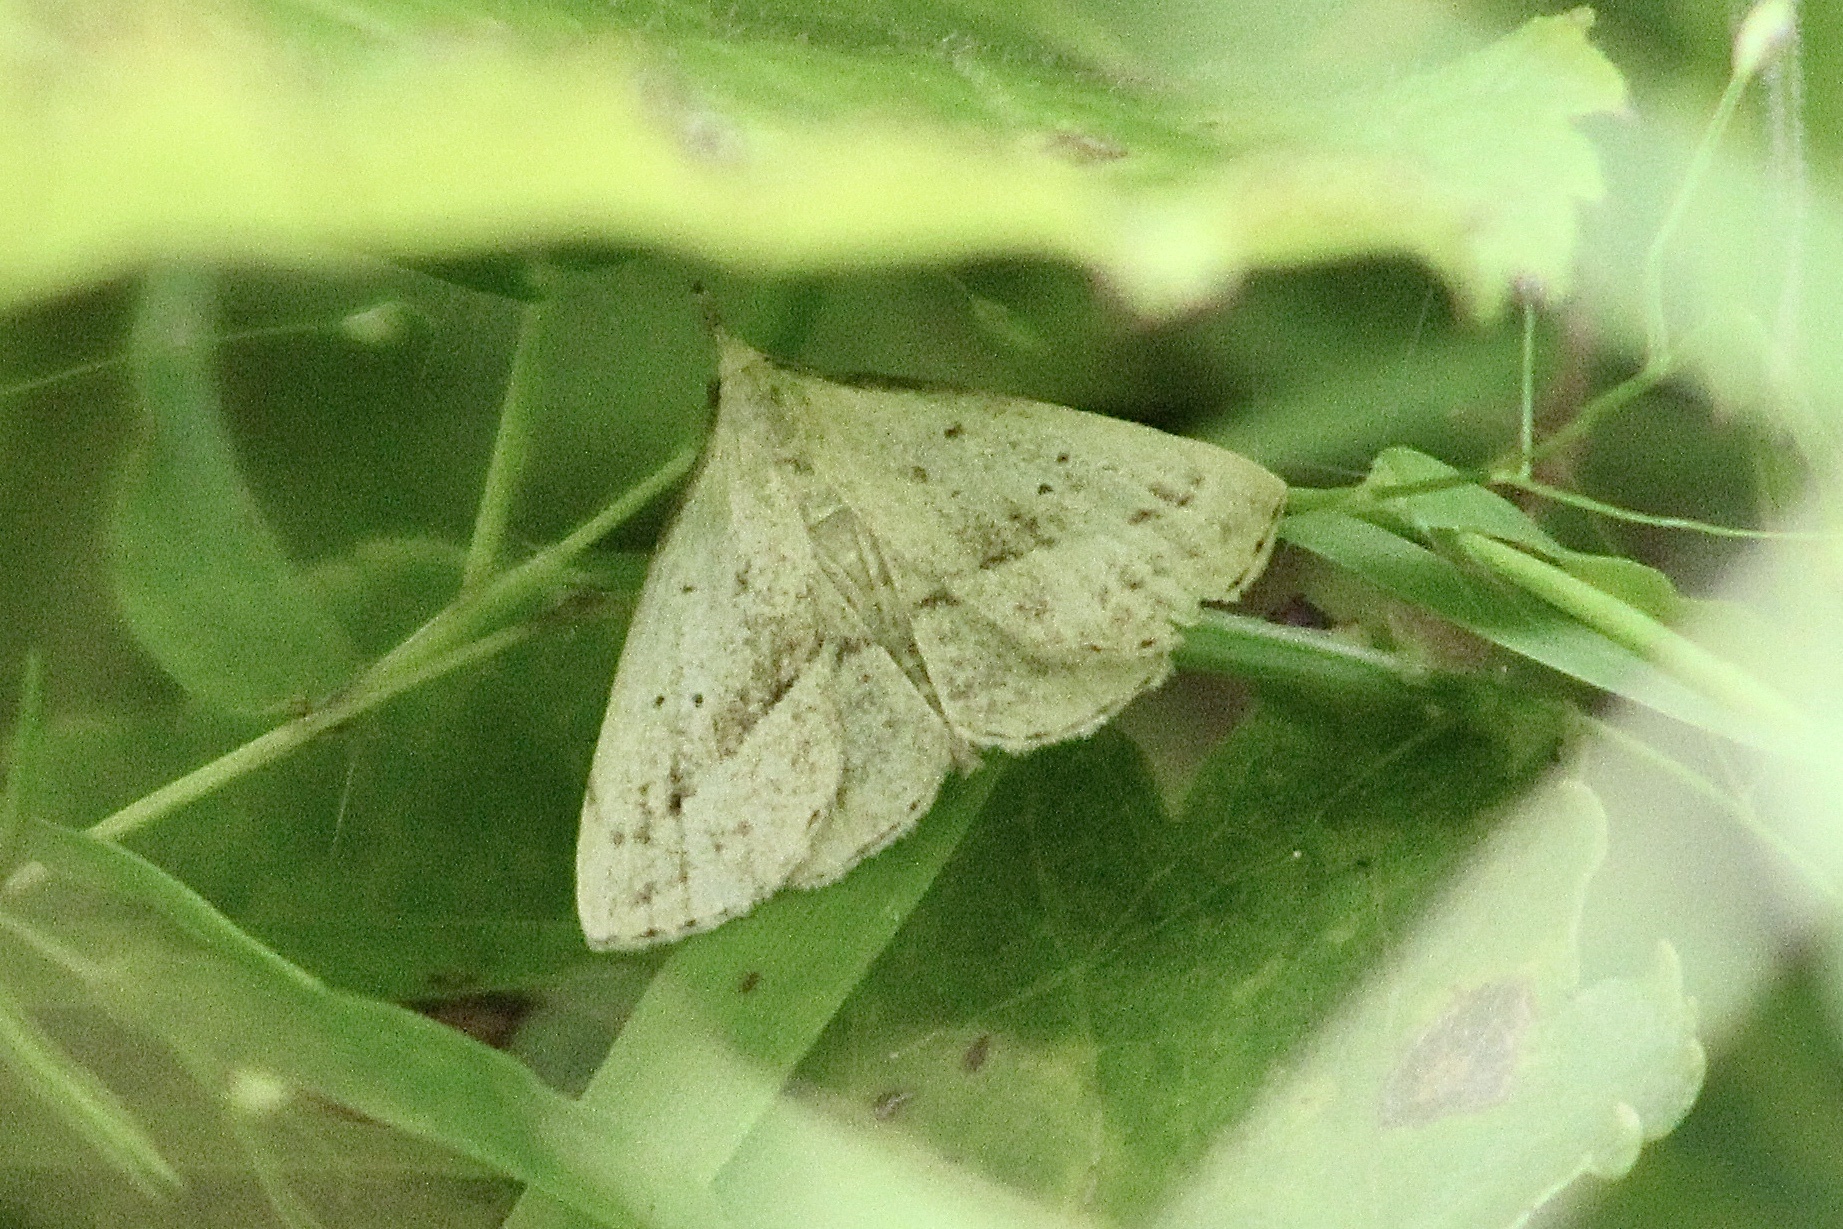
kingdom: Animalia
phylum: Arthropoda
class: Insecta
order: Lepidoptera
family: Erebidae
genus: Macrochilo
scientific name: Macrochilo hypocritalis
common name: Twin-dotted owlet
